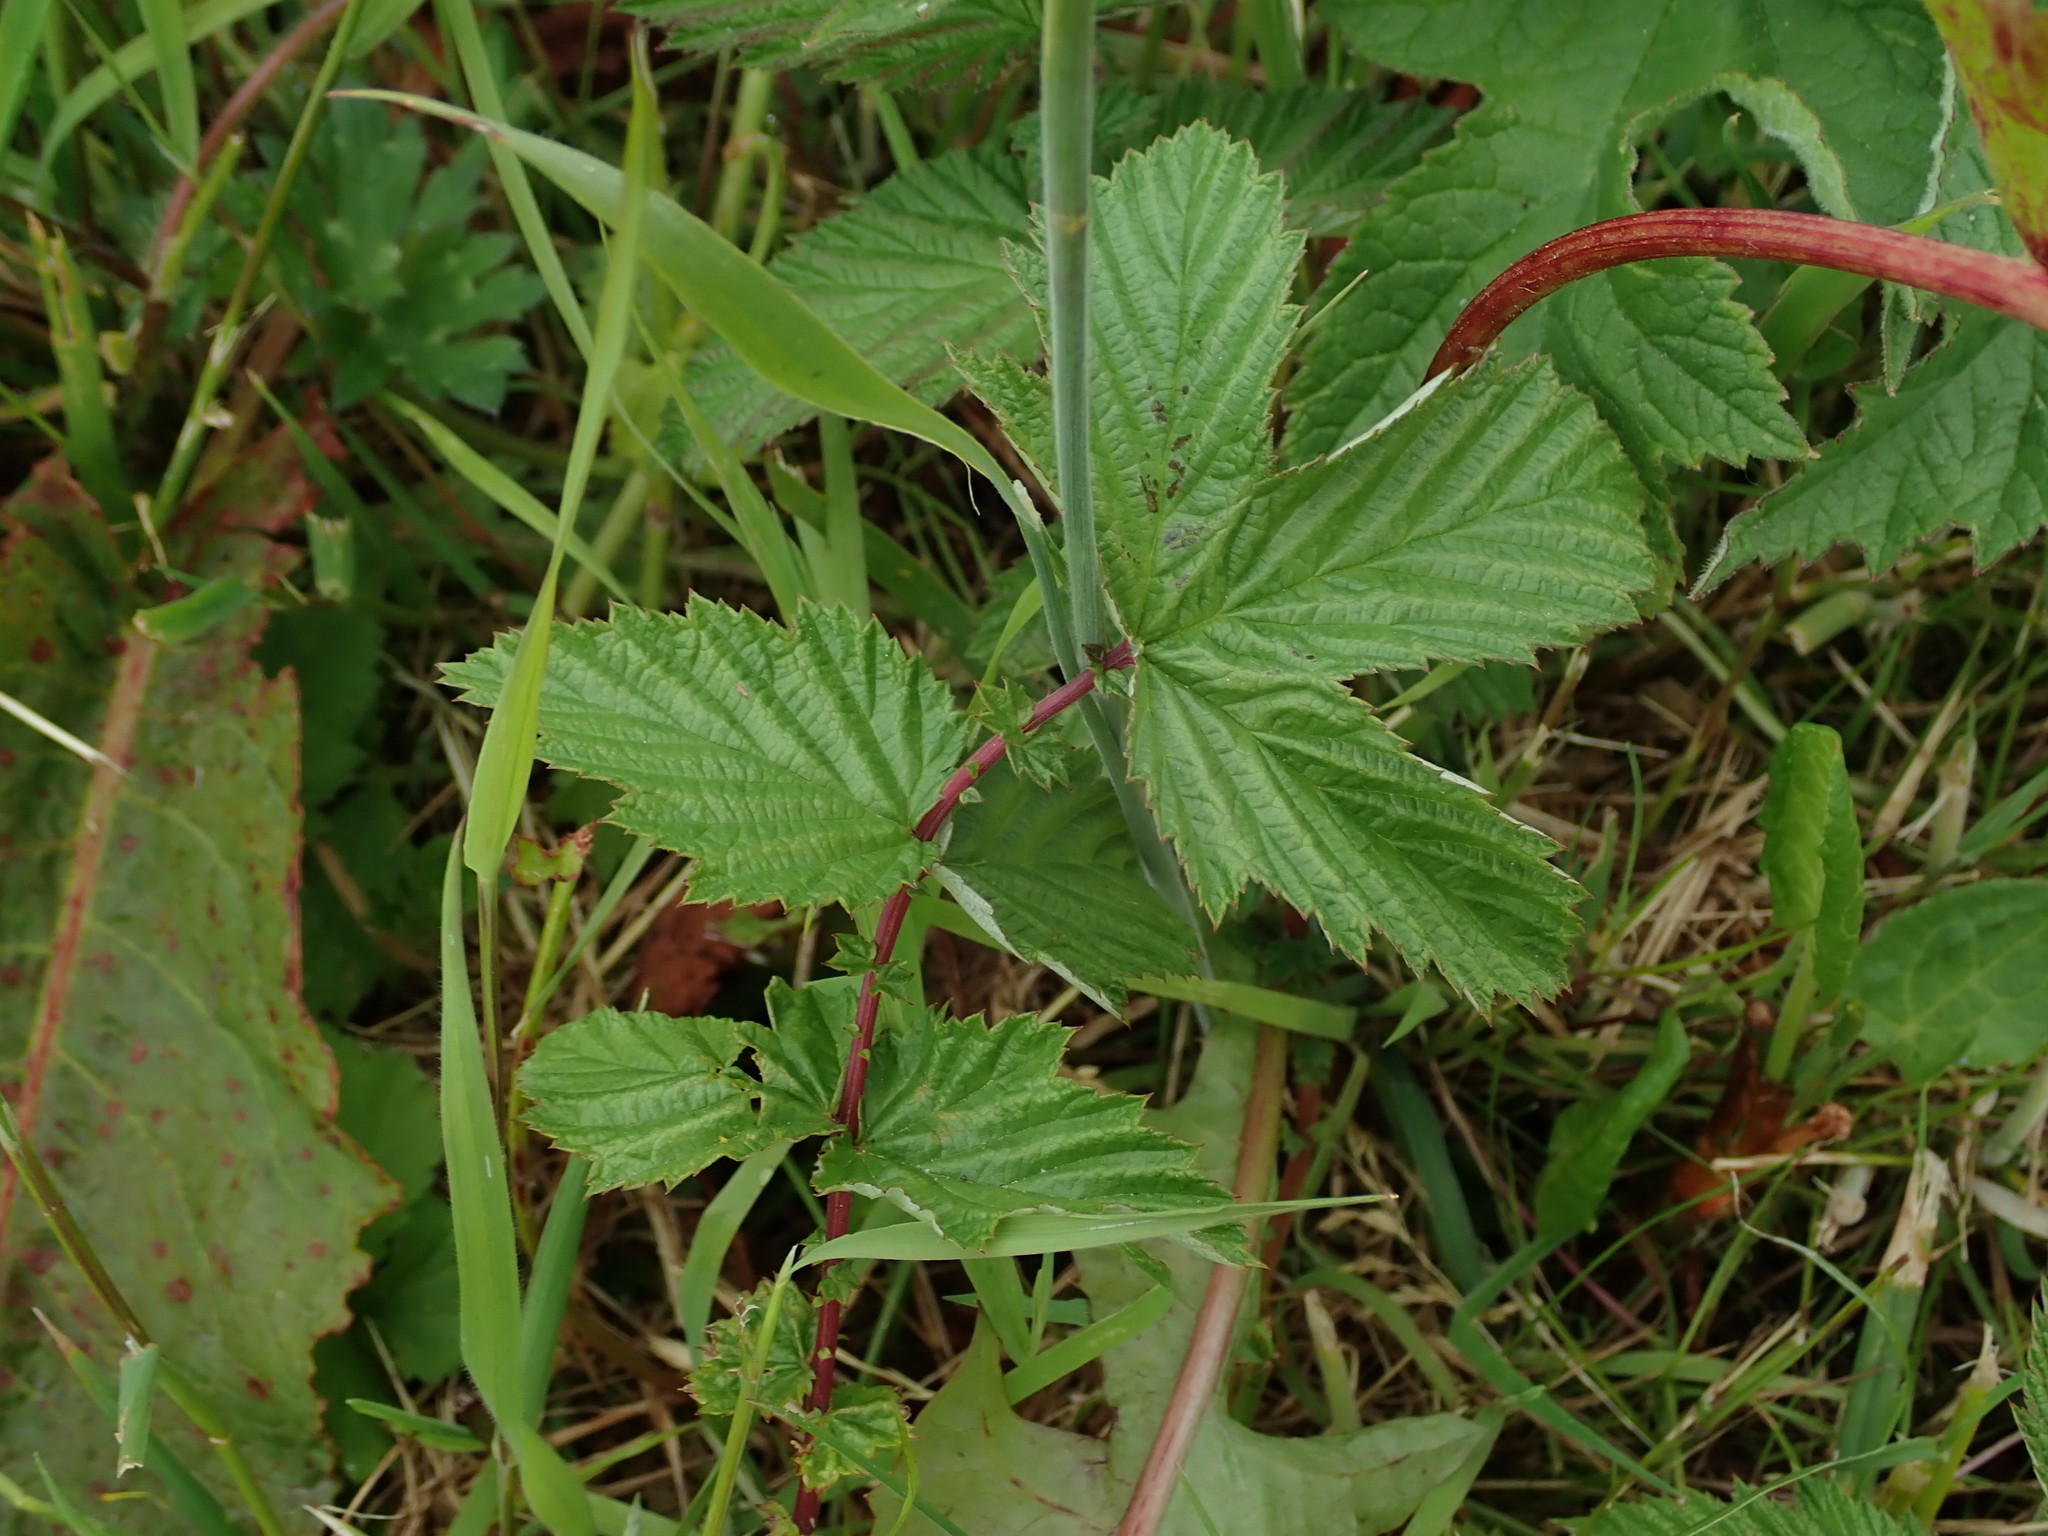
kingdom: Plantae
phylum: Tracheophyta
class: Magnoliopsida
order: Rosales
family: Rosaceae
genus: Filipendula
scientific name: Filipendula ulmaria
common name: Meadowsweet
